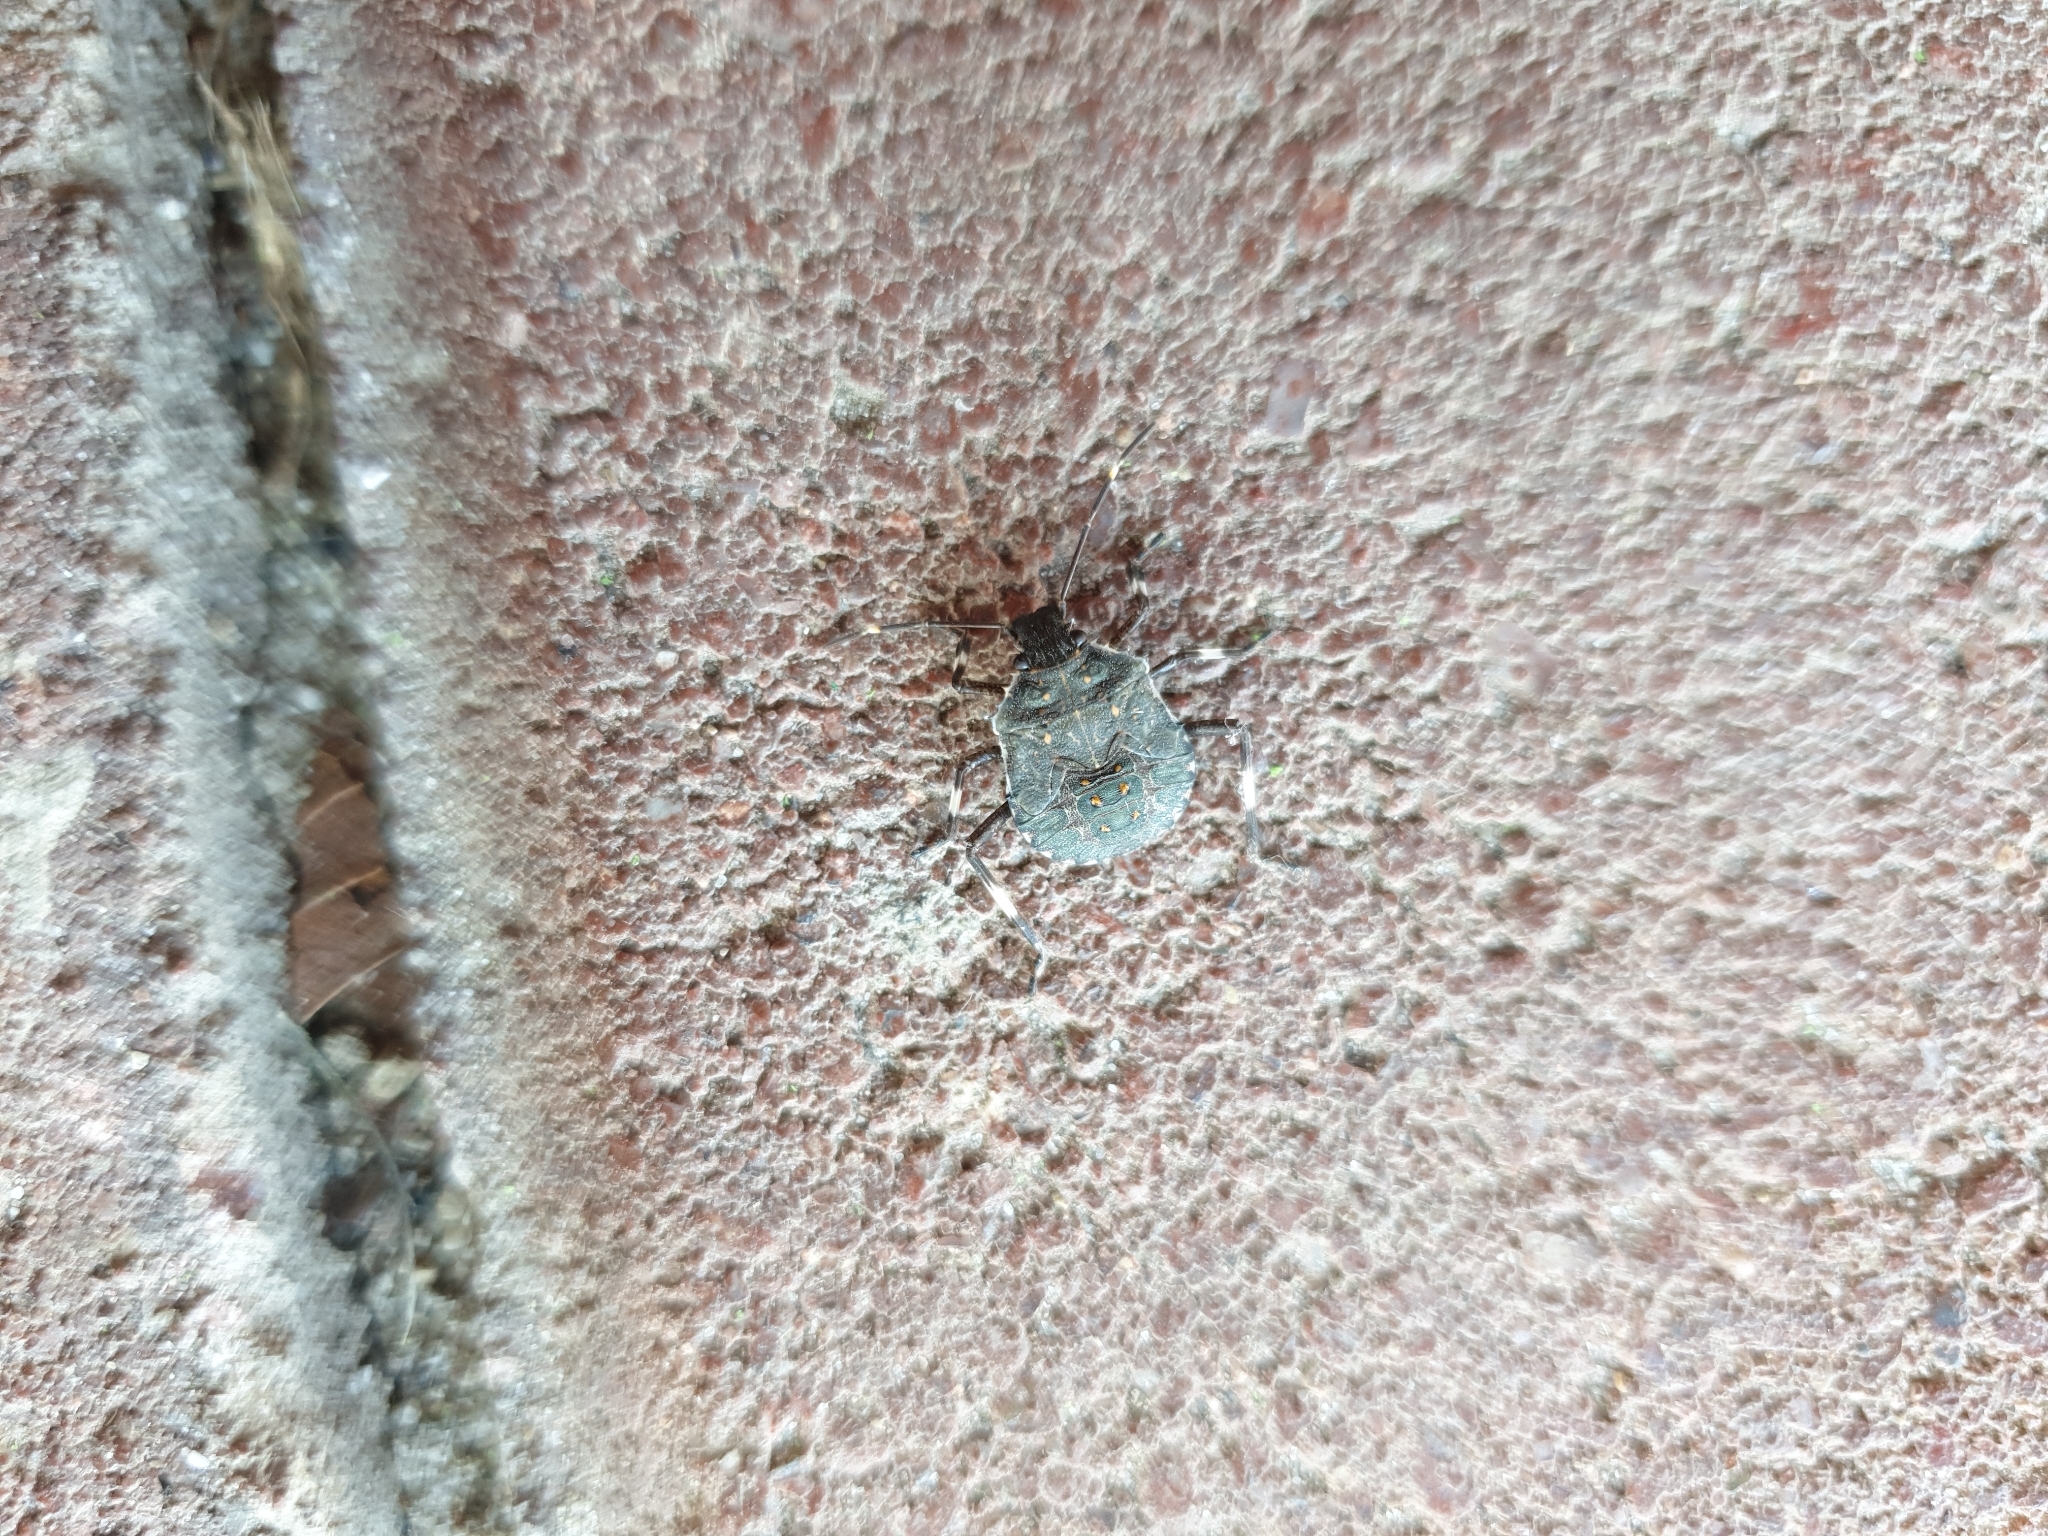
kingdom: Animalia
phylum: Arthropoda
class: Insecta
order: Hemiptera
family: Pentatomidae
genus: Halyomorpha
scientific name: Halyomorpha halys
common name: Brown marmorated stink bug
